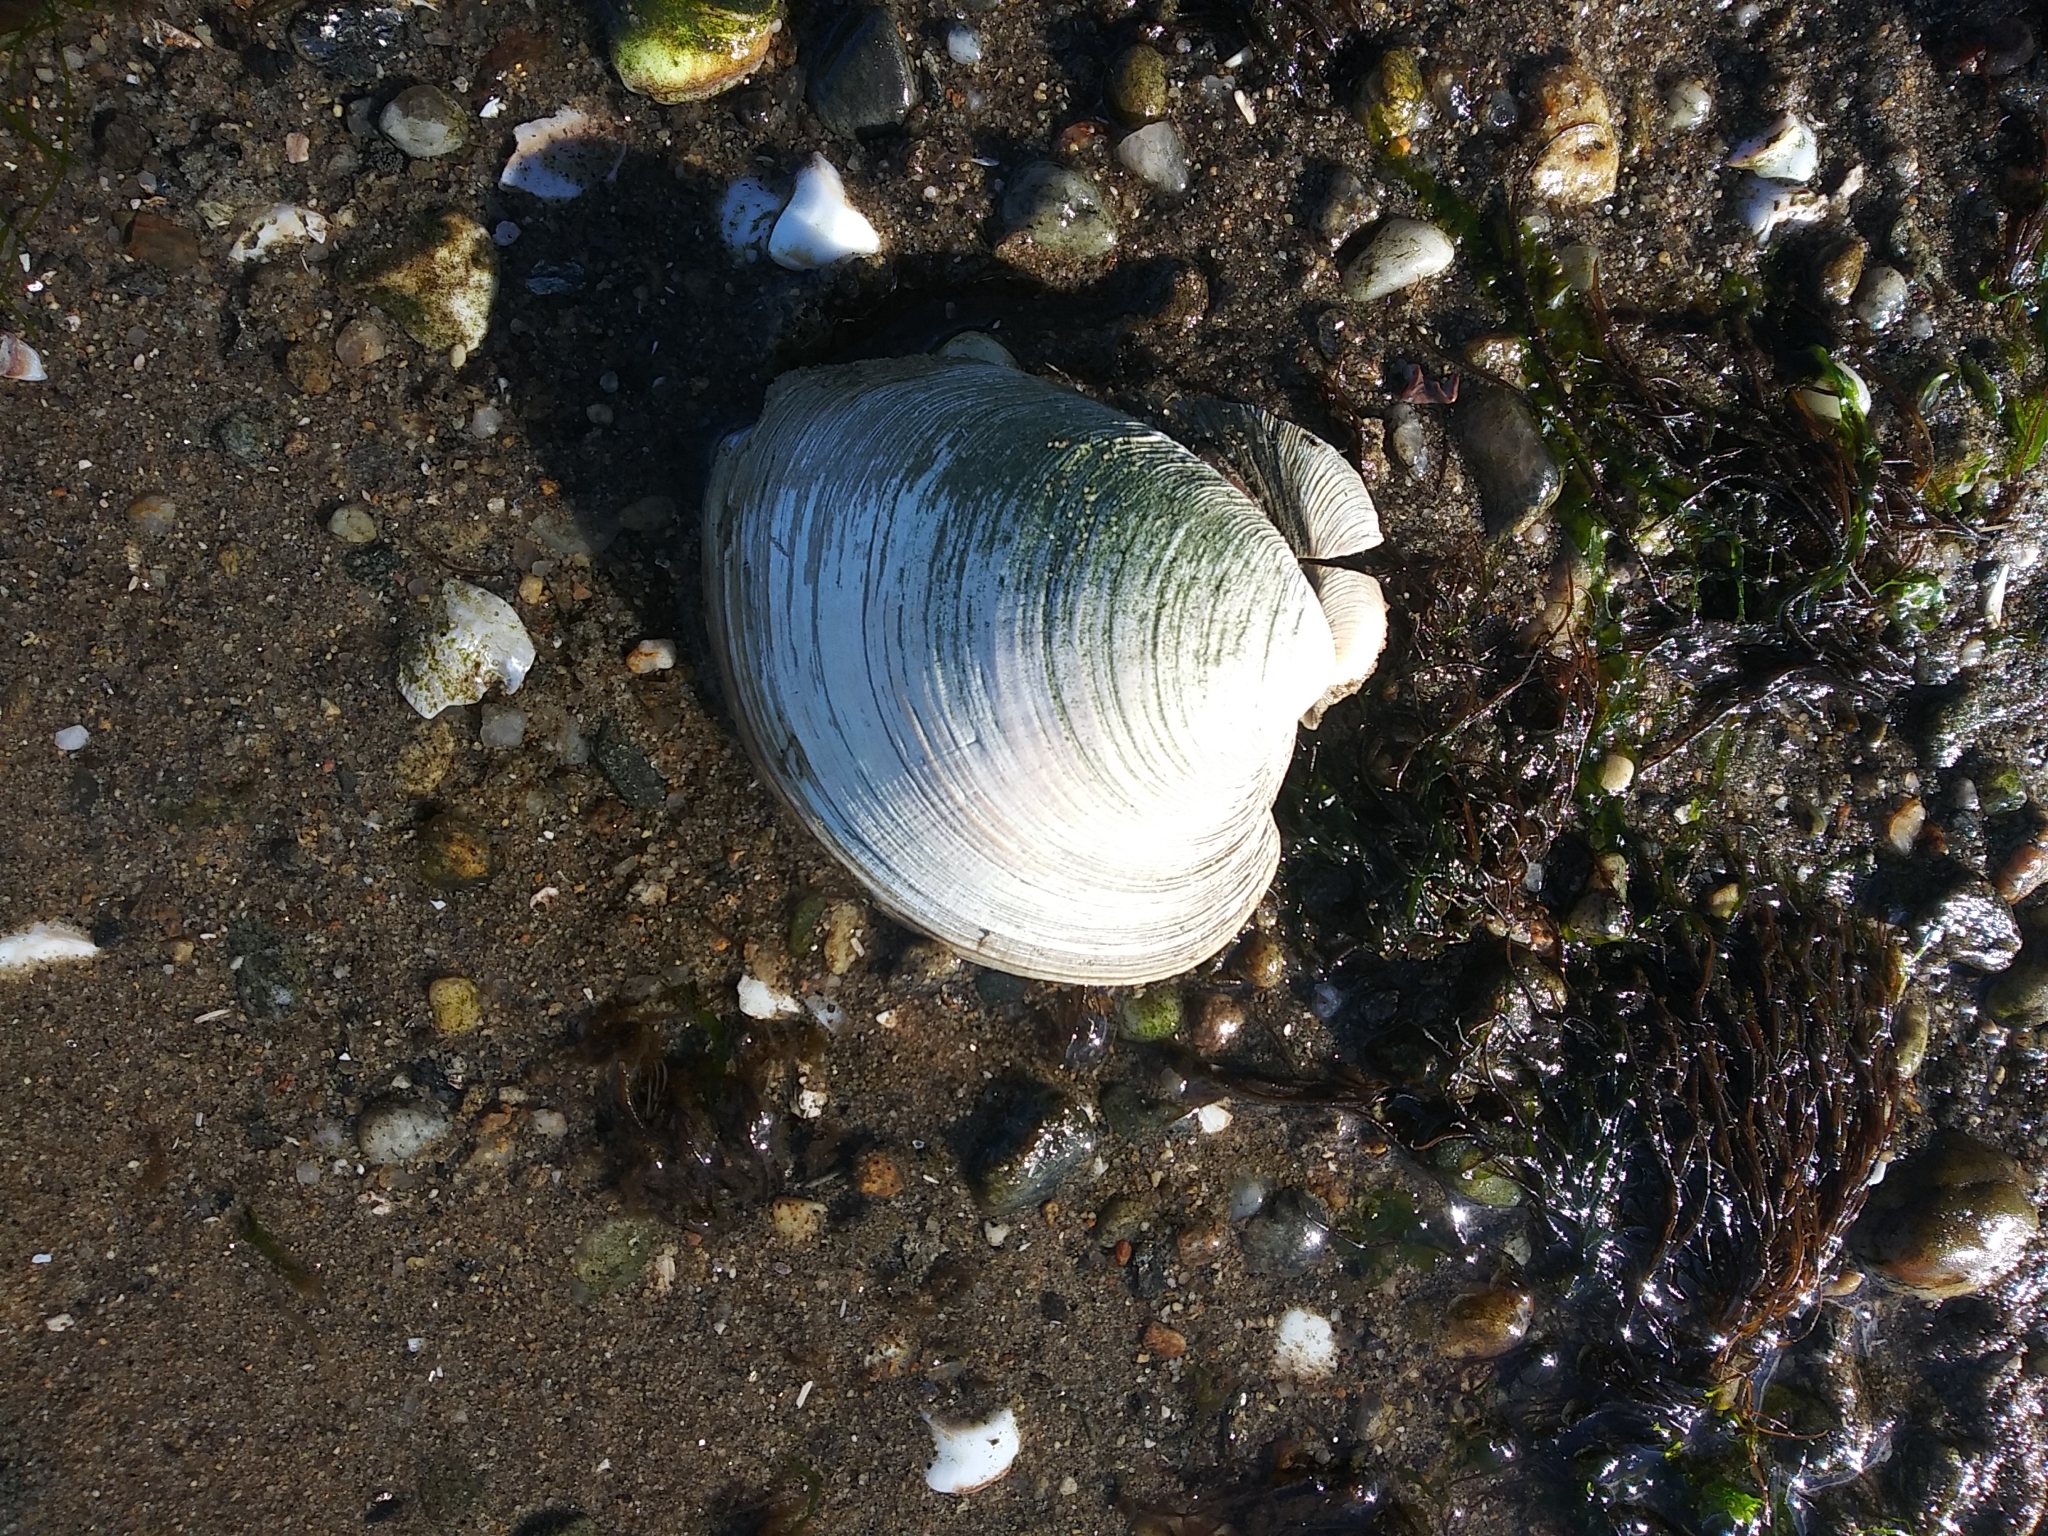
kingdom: Animalia
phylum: Mollusca
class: Bivalvia
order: Venerida
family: Veneridae
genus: Mercenaria
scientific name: Mercenaria mercenaria
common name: American hard-shelled clam
